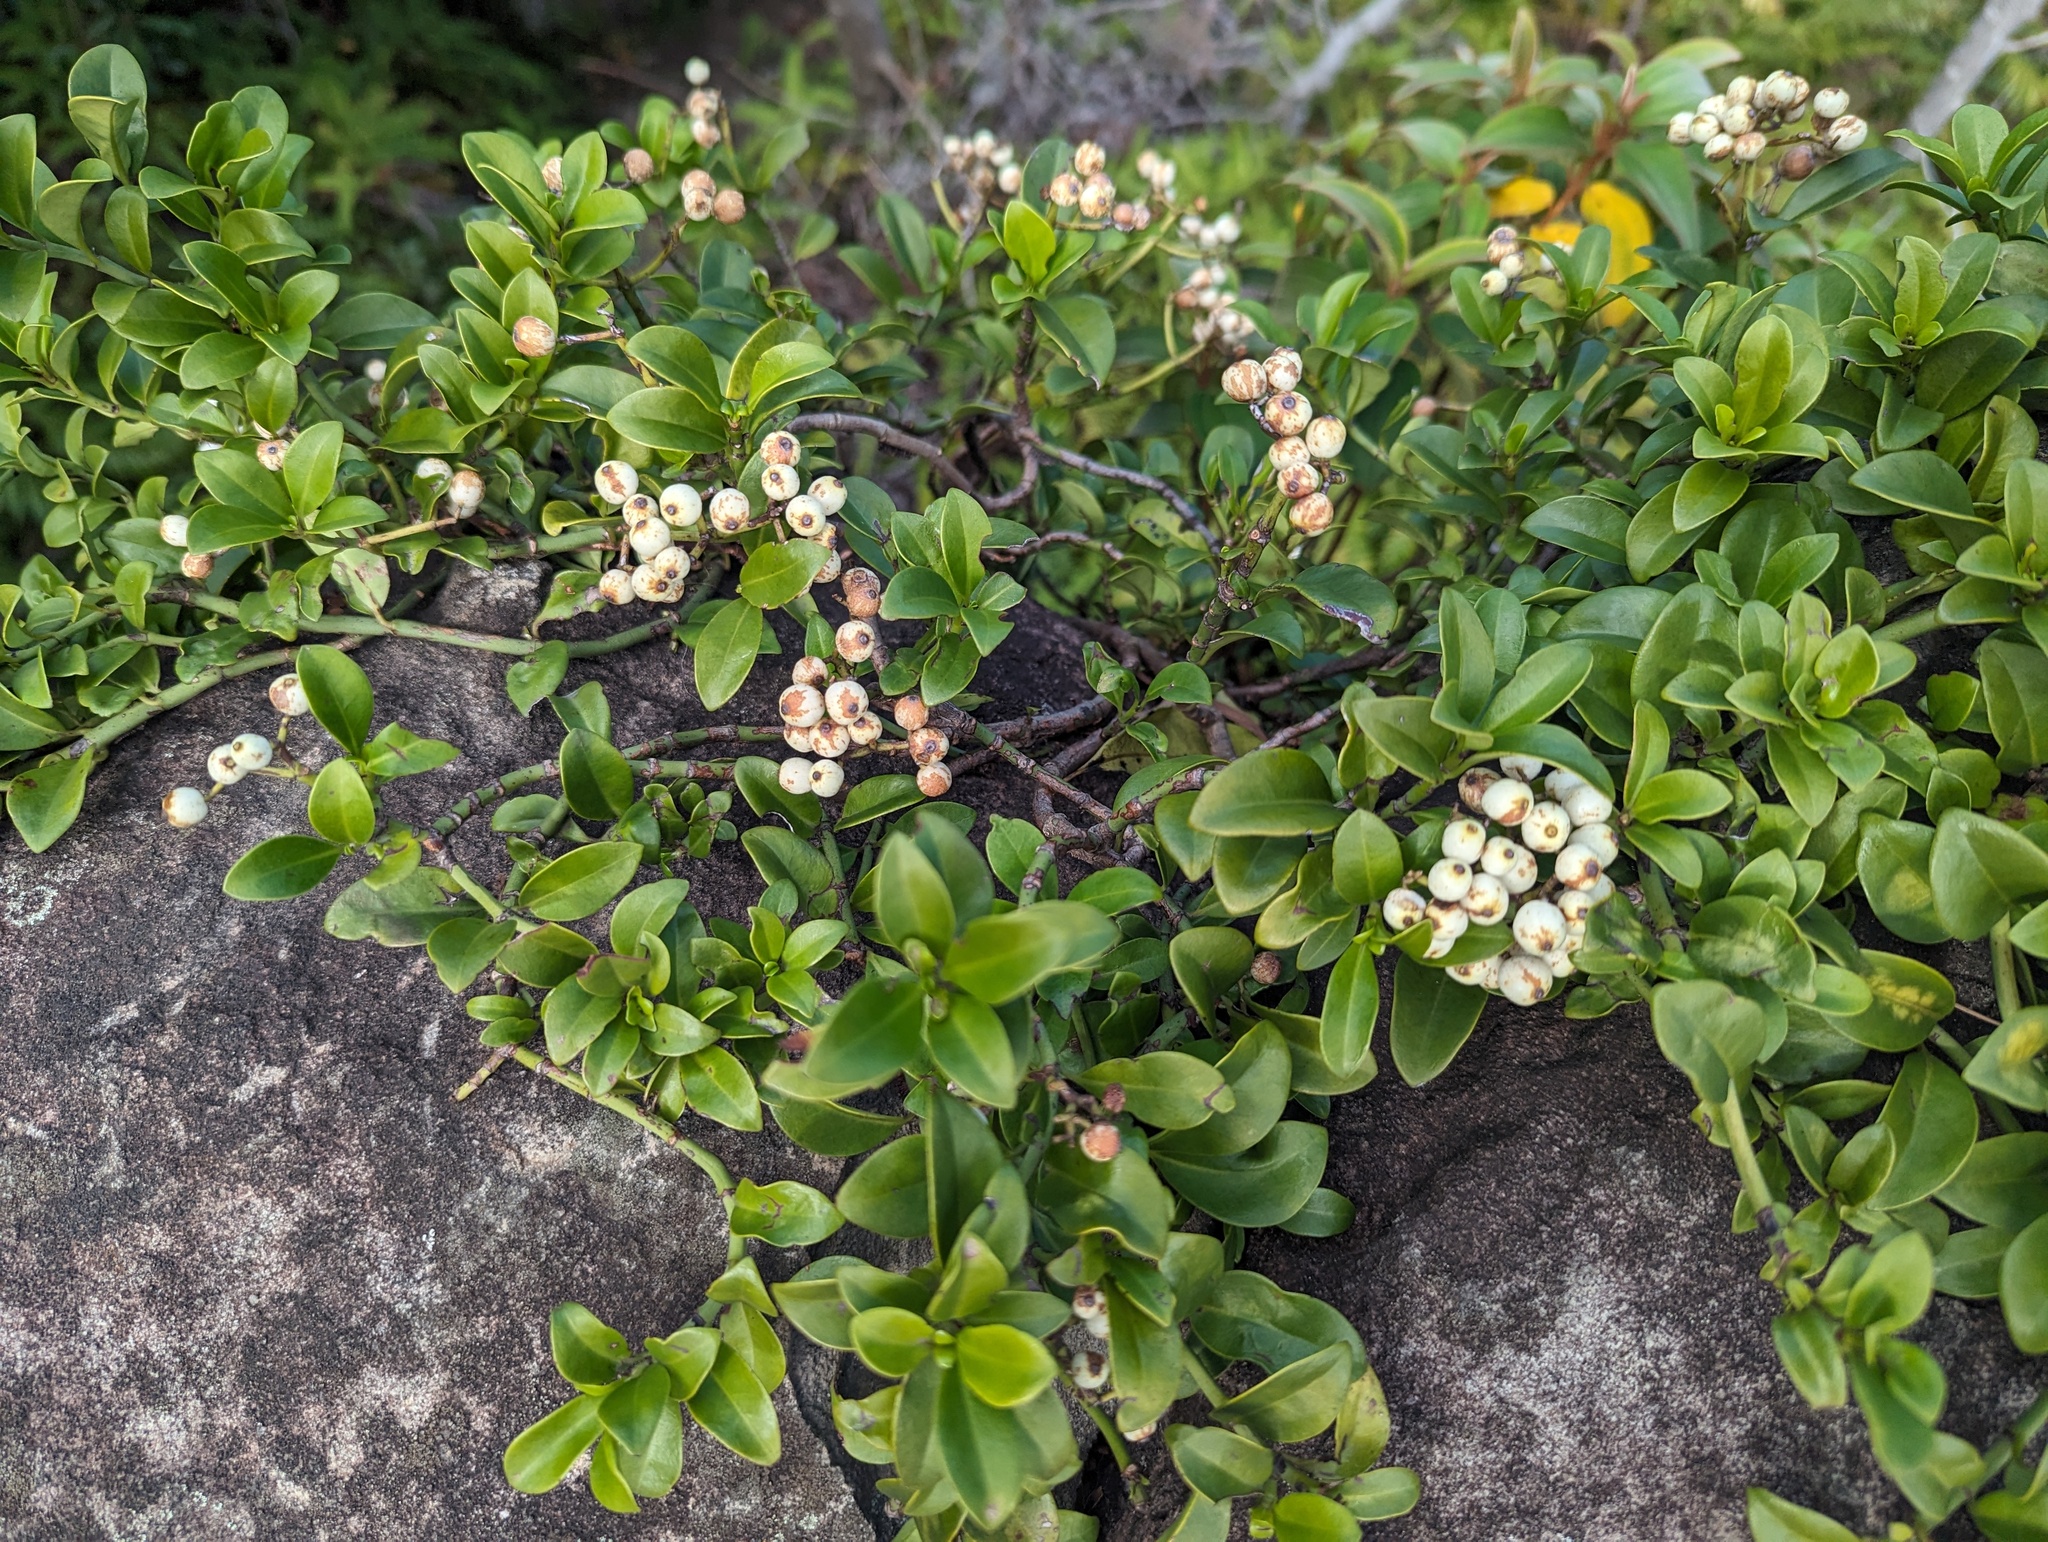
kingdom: Plantae
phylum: Tracheophyta
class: Magnoliopsida
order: Gentianales
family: Rubiaceae
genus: Psychotria
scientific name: Psychotria serpens
